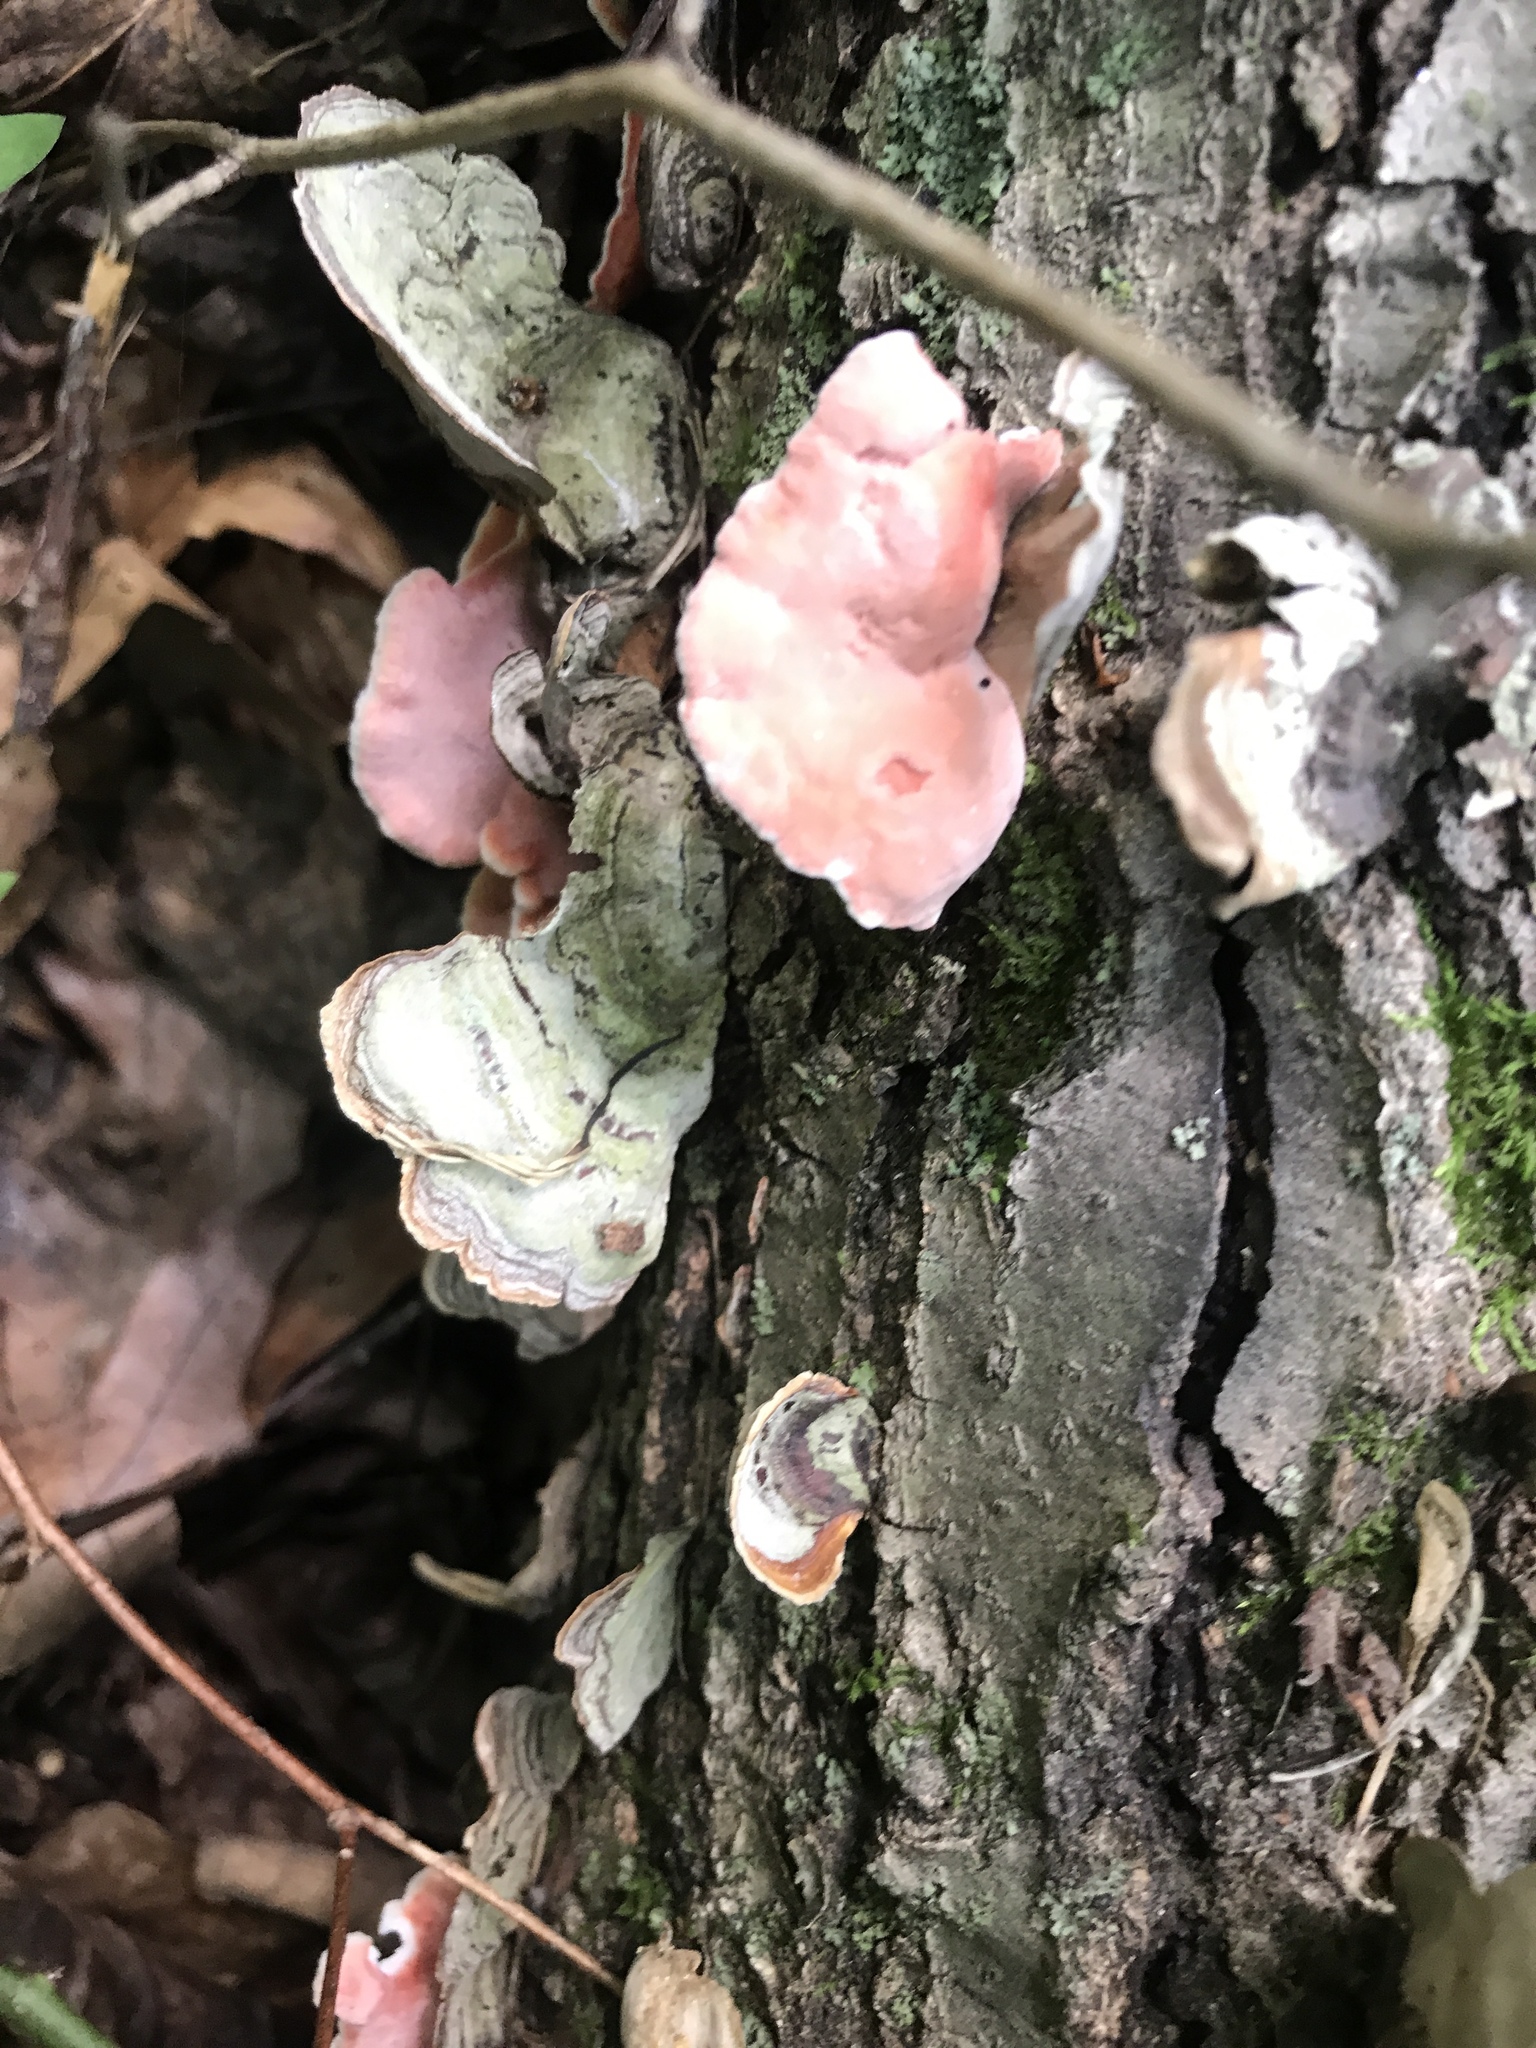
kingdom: Fungi
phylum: Basidiomycota
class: Agaricomycetes
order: Polyporales
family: Irpicaceae
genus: Byssomerulius
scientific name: Byssomerulius incarnatus
